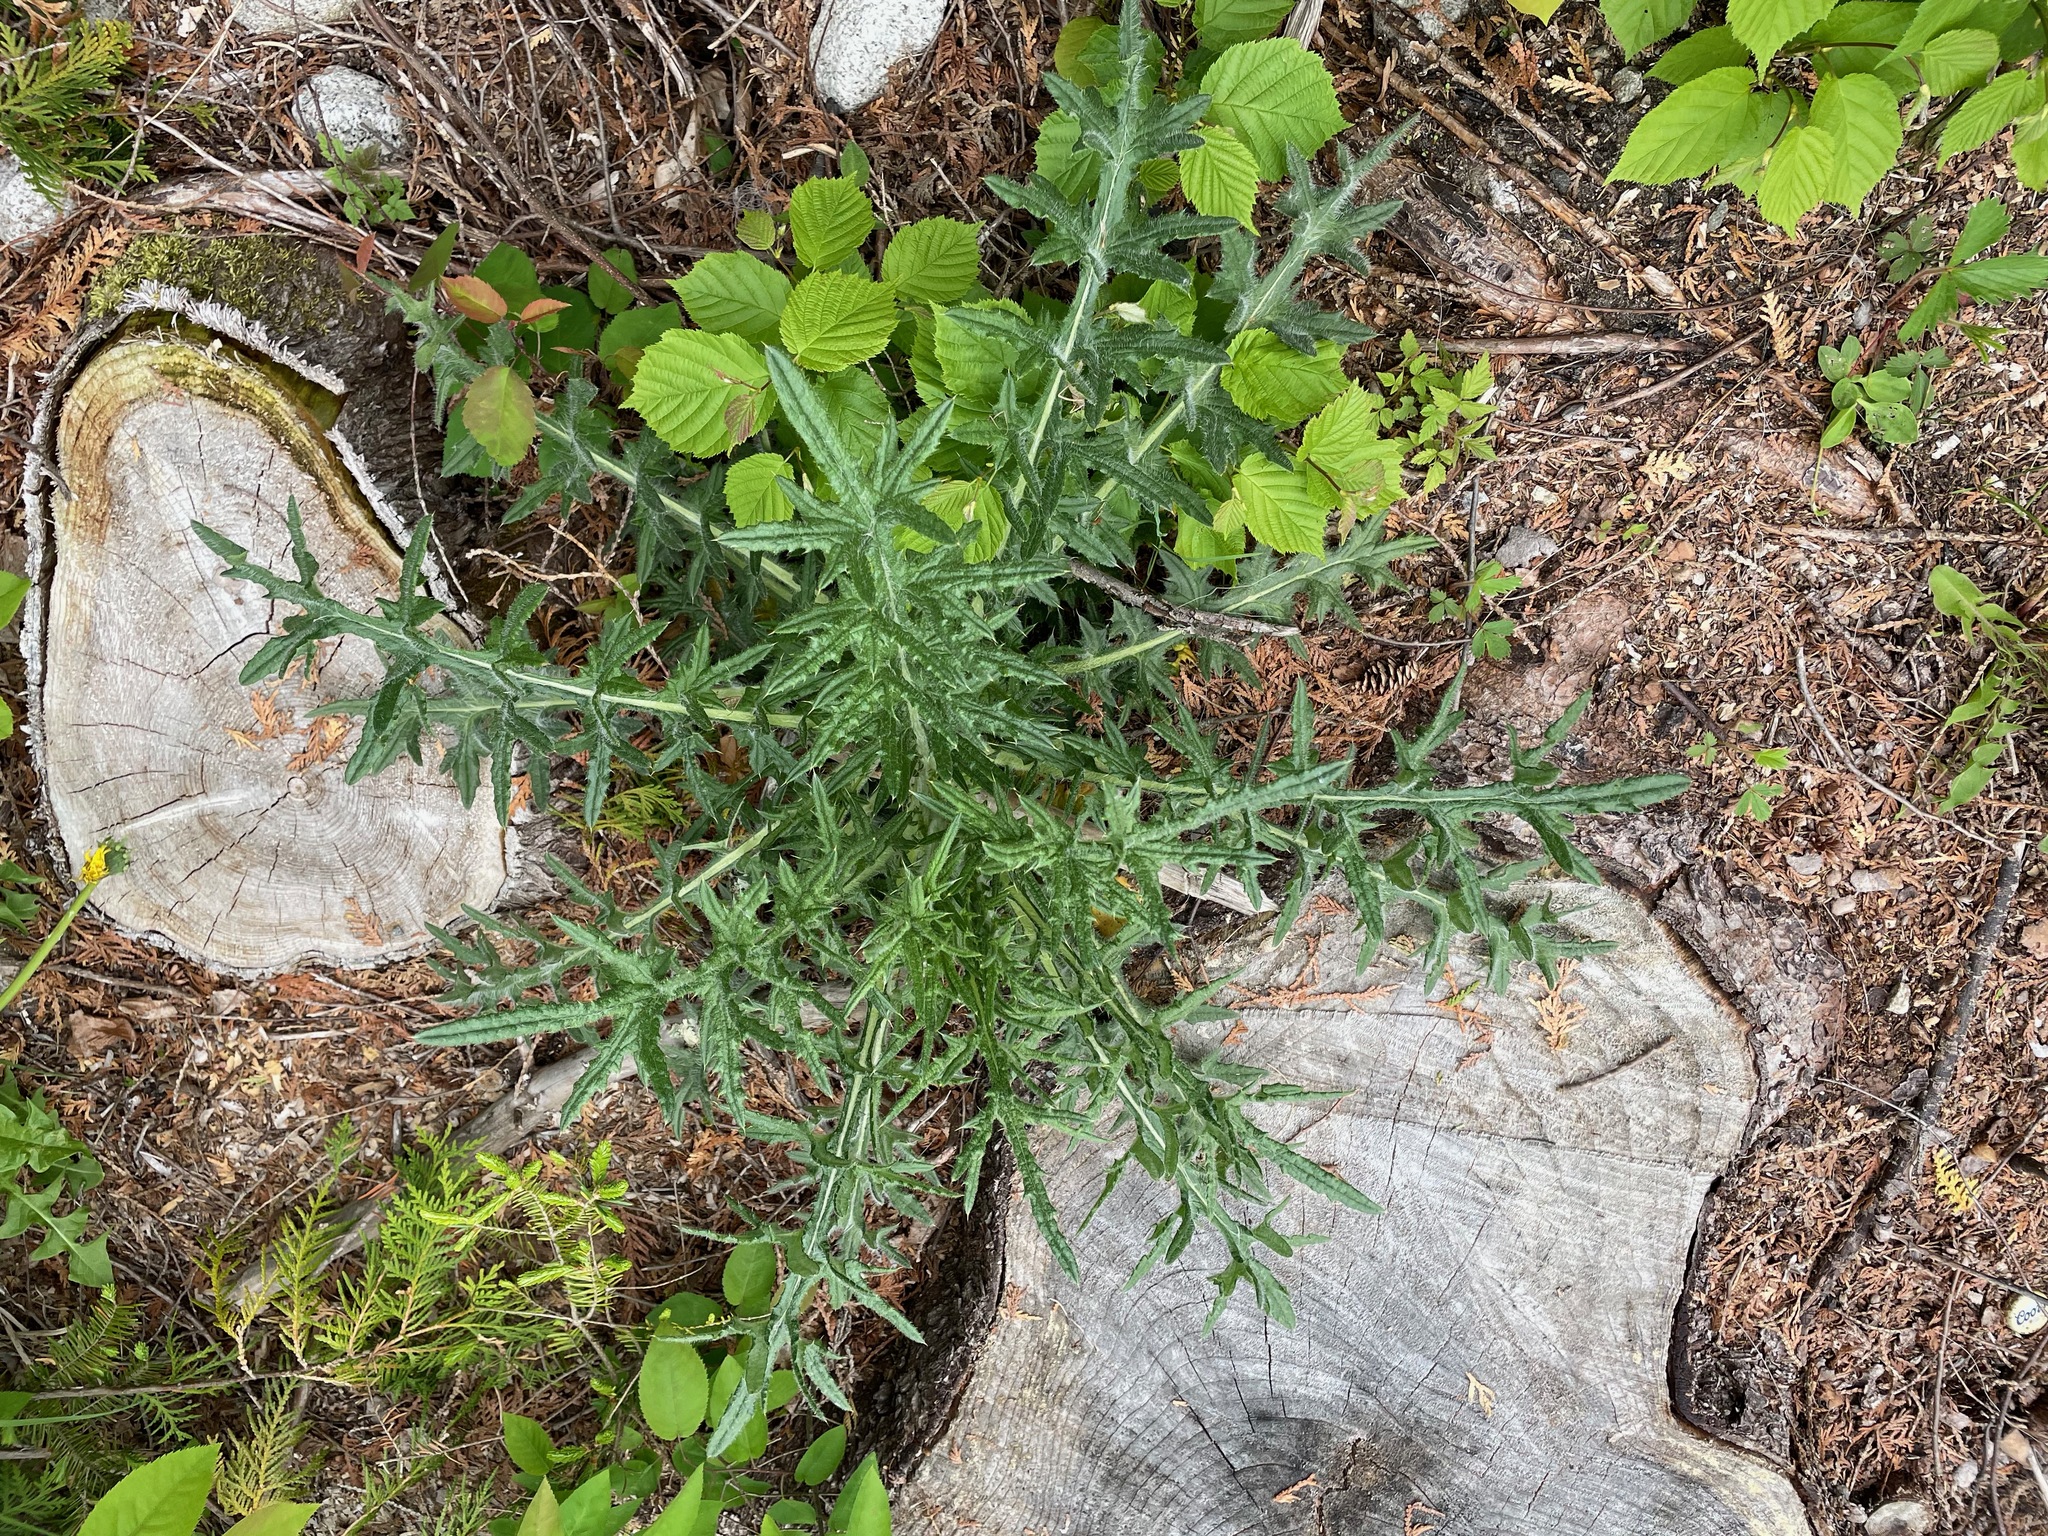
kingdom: Plantae
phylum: Tracheophyta
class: Magnoliopsida
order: Asterales
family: Asteraceae
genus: Cirsium
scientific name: Cirsium vulgare
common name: Bull thistle
